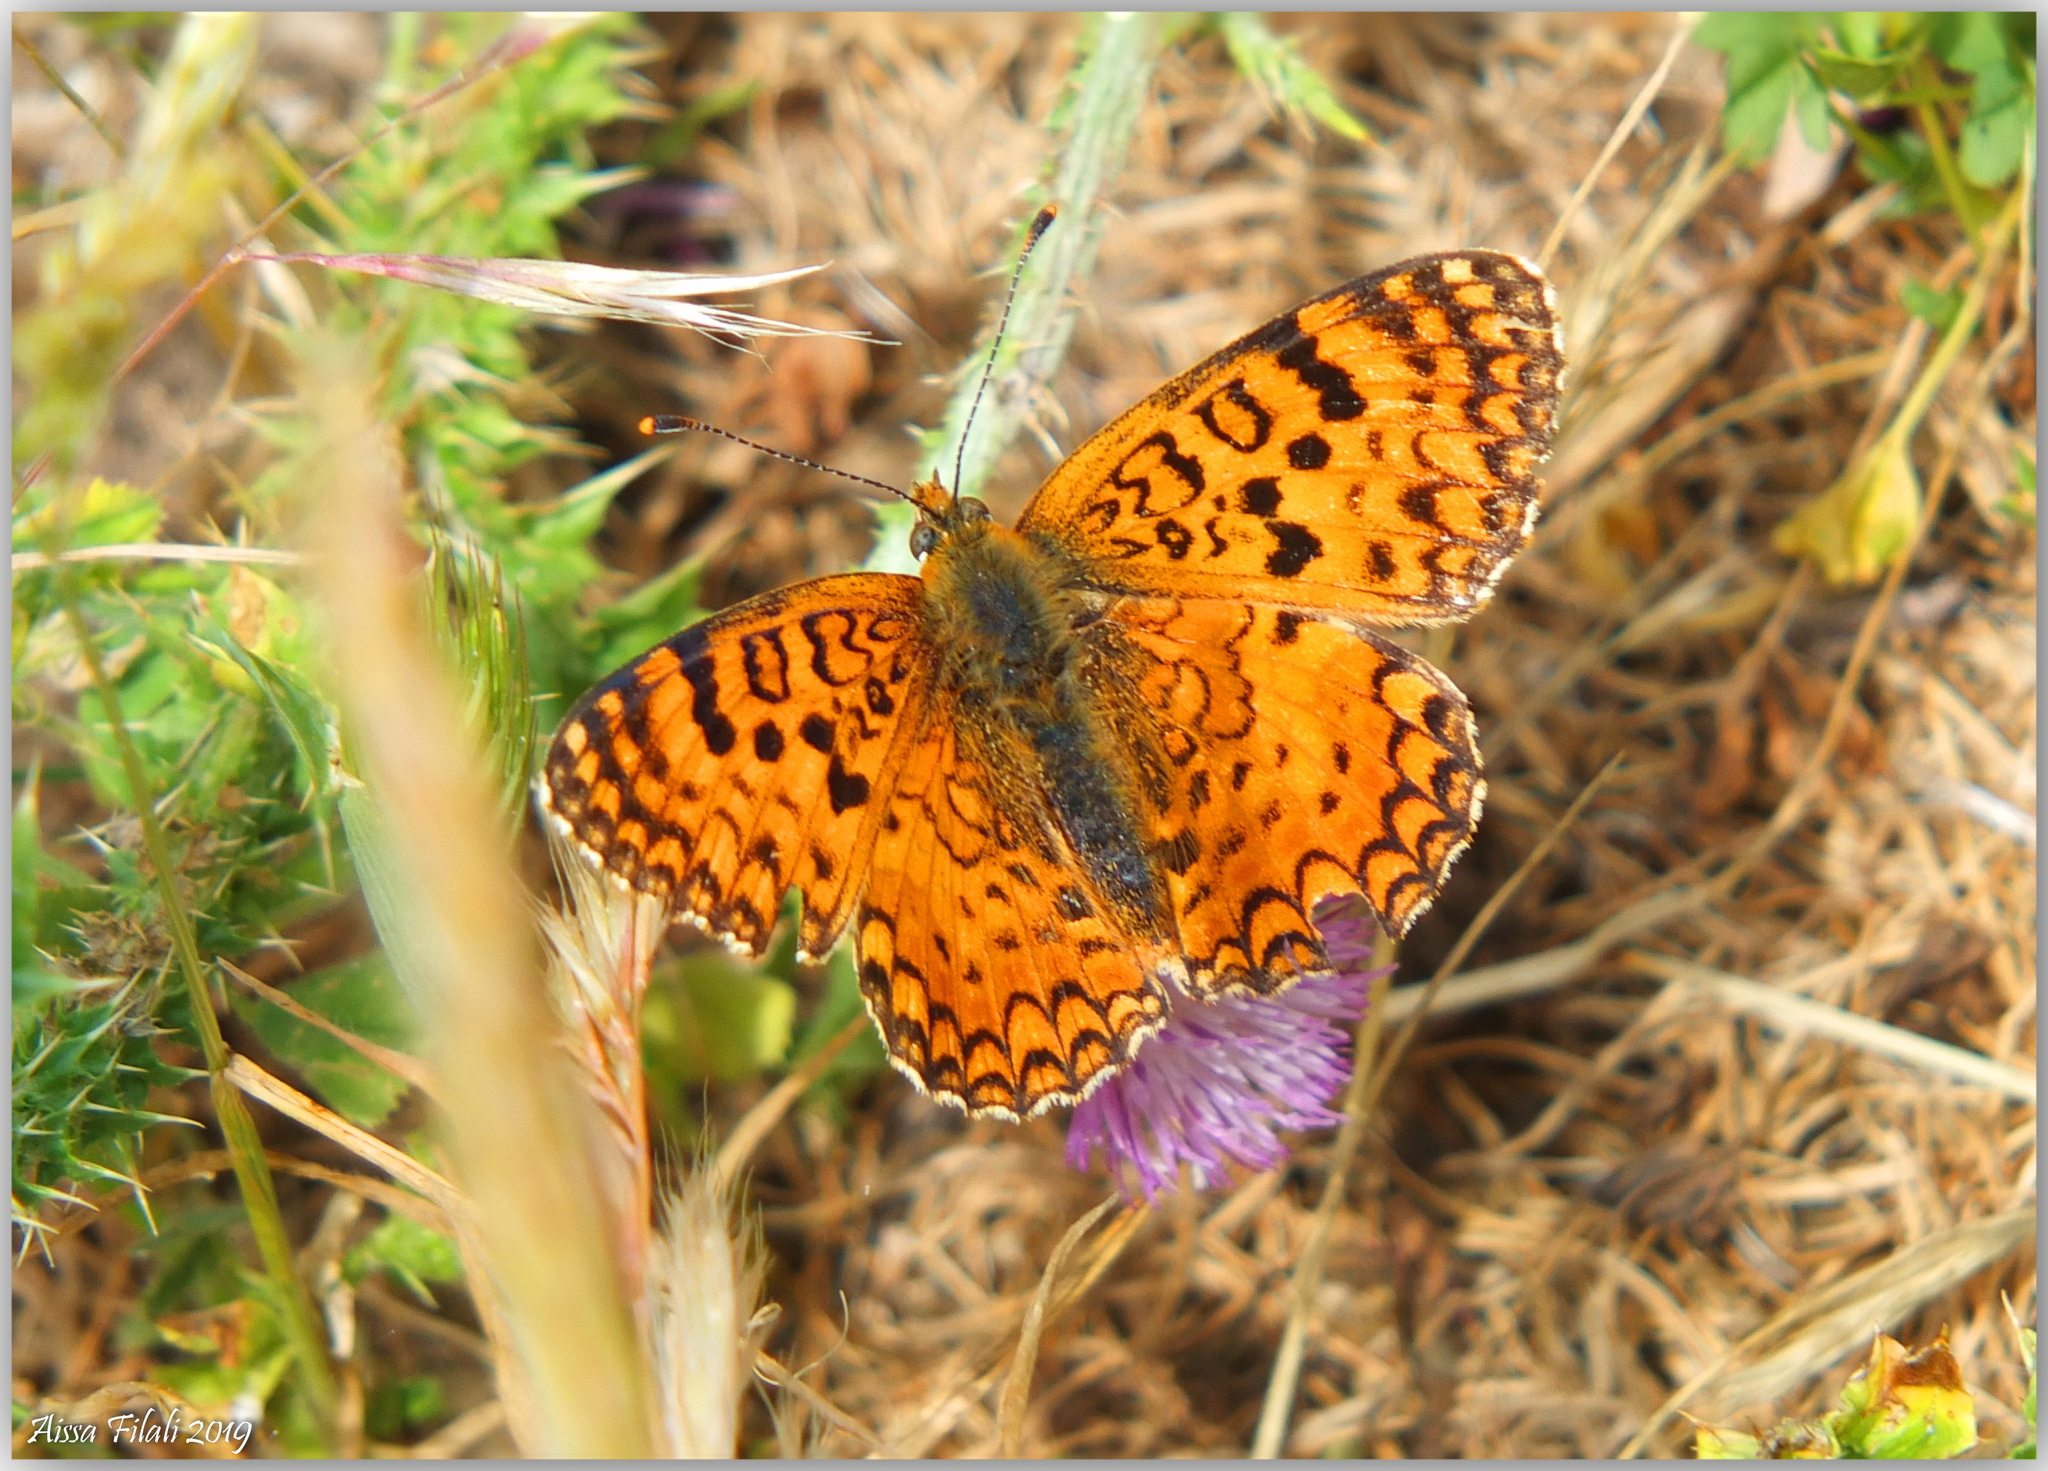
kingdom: Animalia
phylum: Arthropoda
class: Insecta
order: Lepidoptera
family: Nymphalidae
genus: Melitaea
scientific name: Melitaea aetherie
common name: Aetherie fritillary
